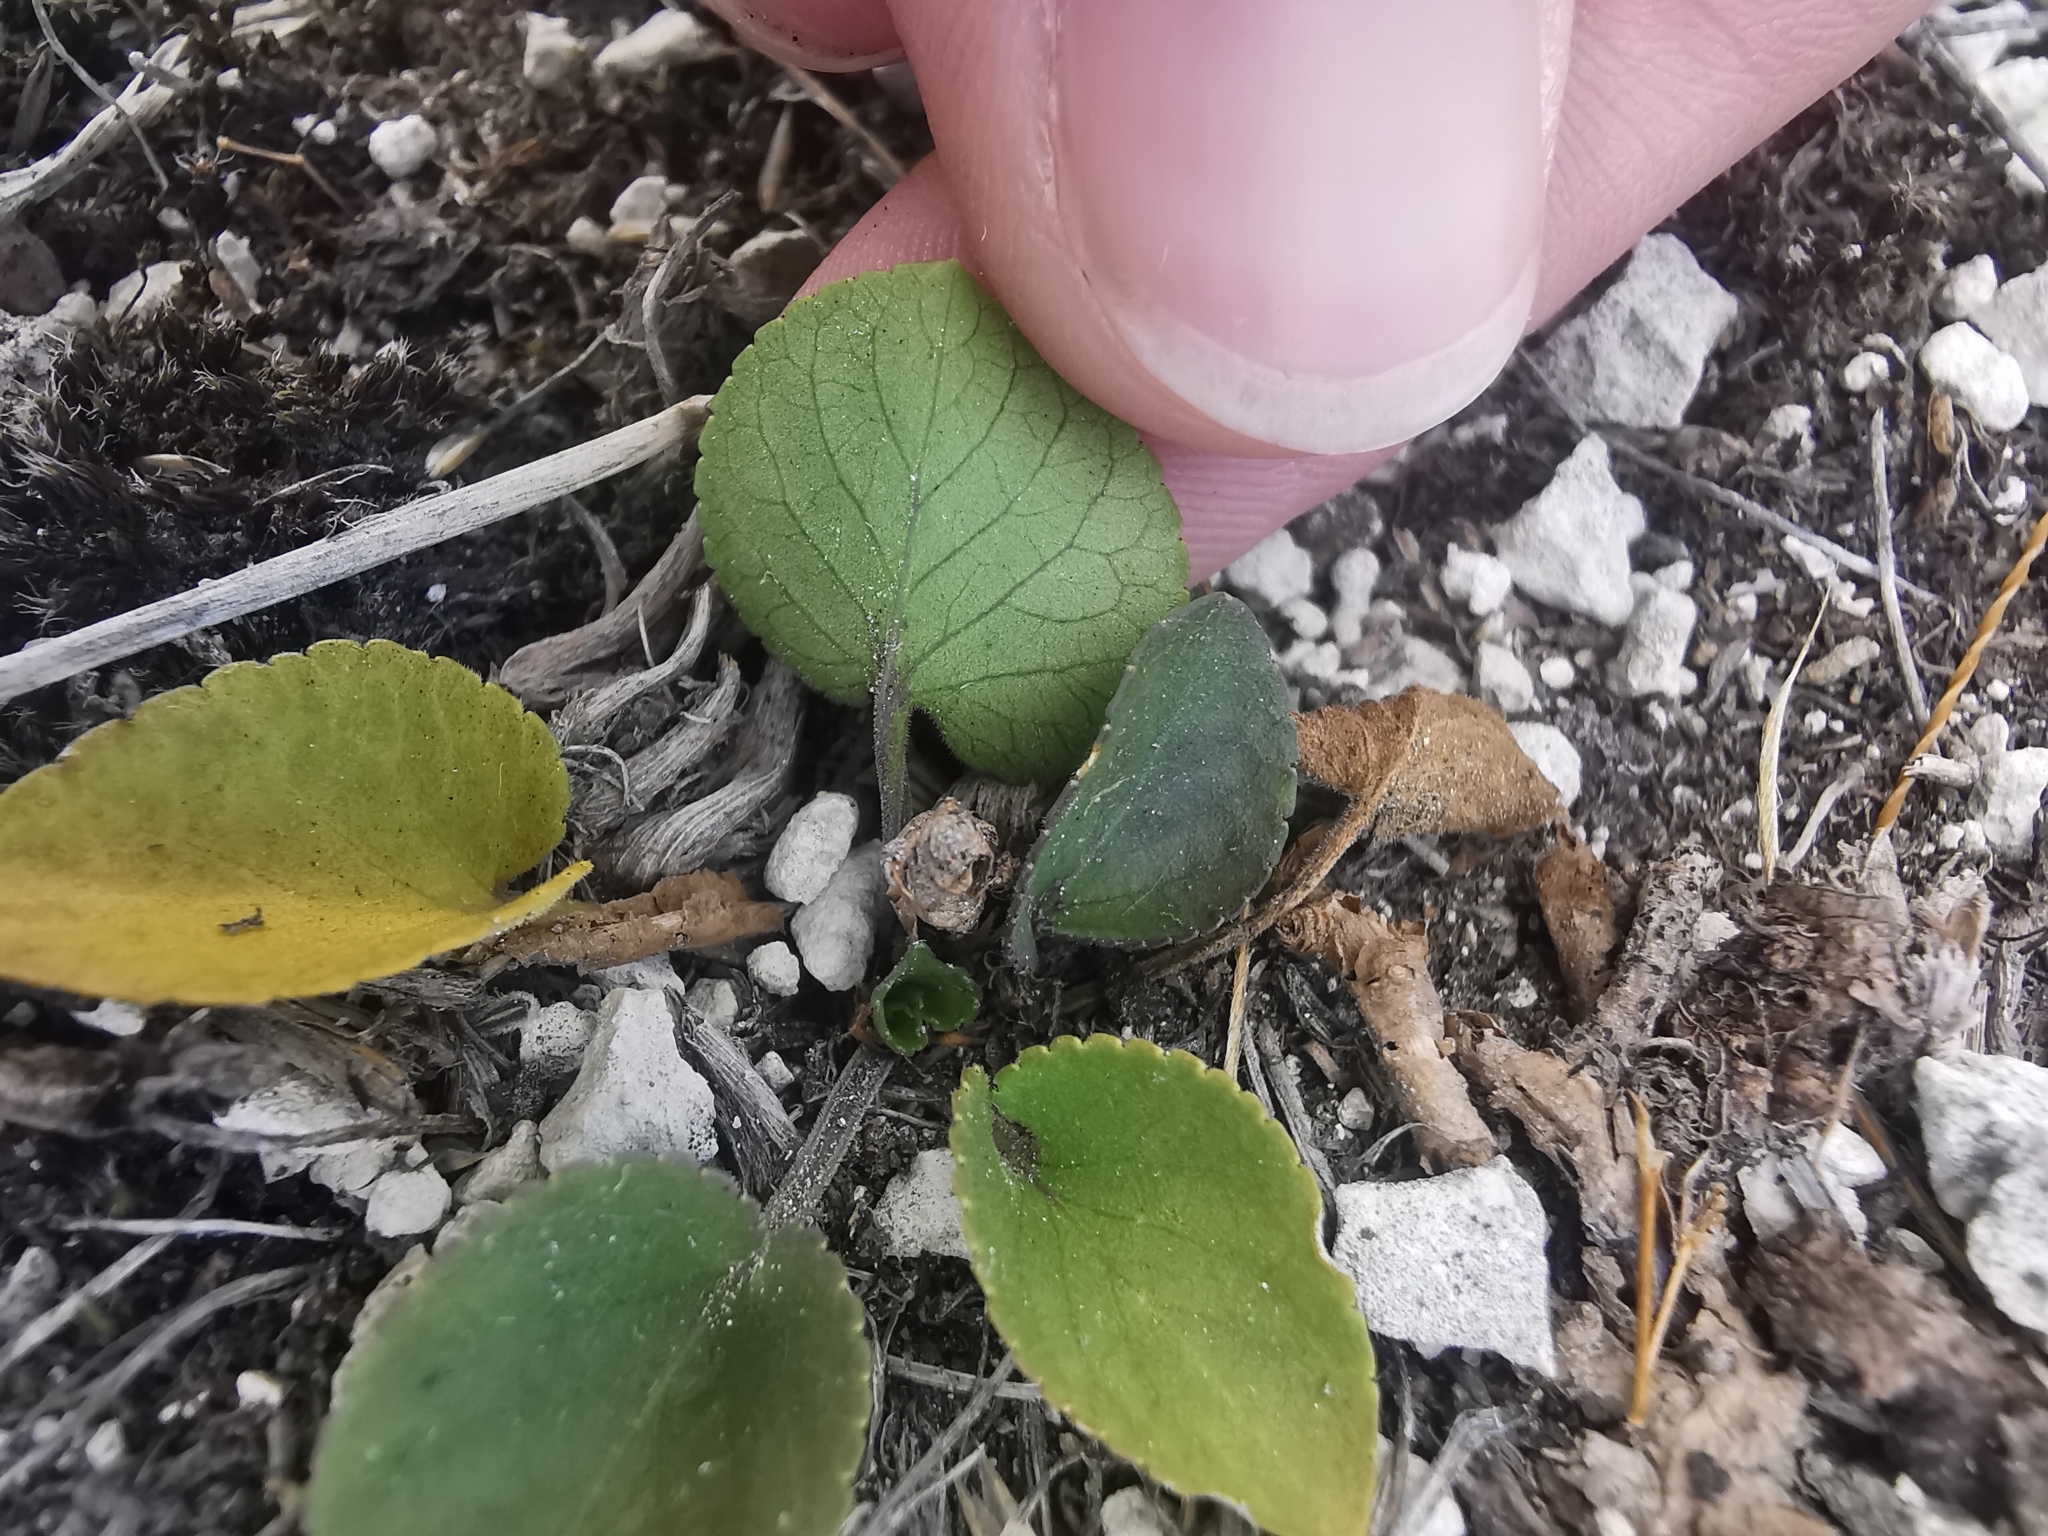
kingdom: Plantae
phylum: Tracheophyta
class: Magnoliopsida
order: Malpighiales
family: Violaceae
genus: Viola
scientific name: Viola rupestris
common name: Teesdale violet
